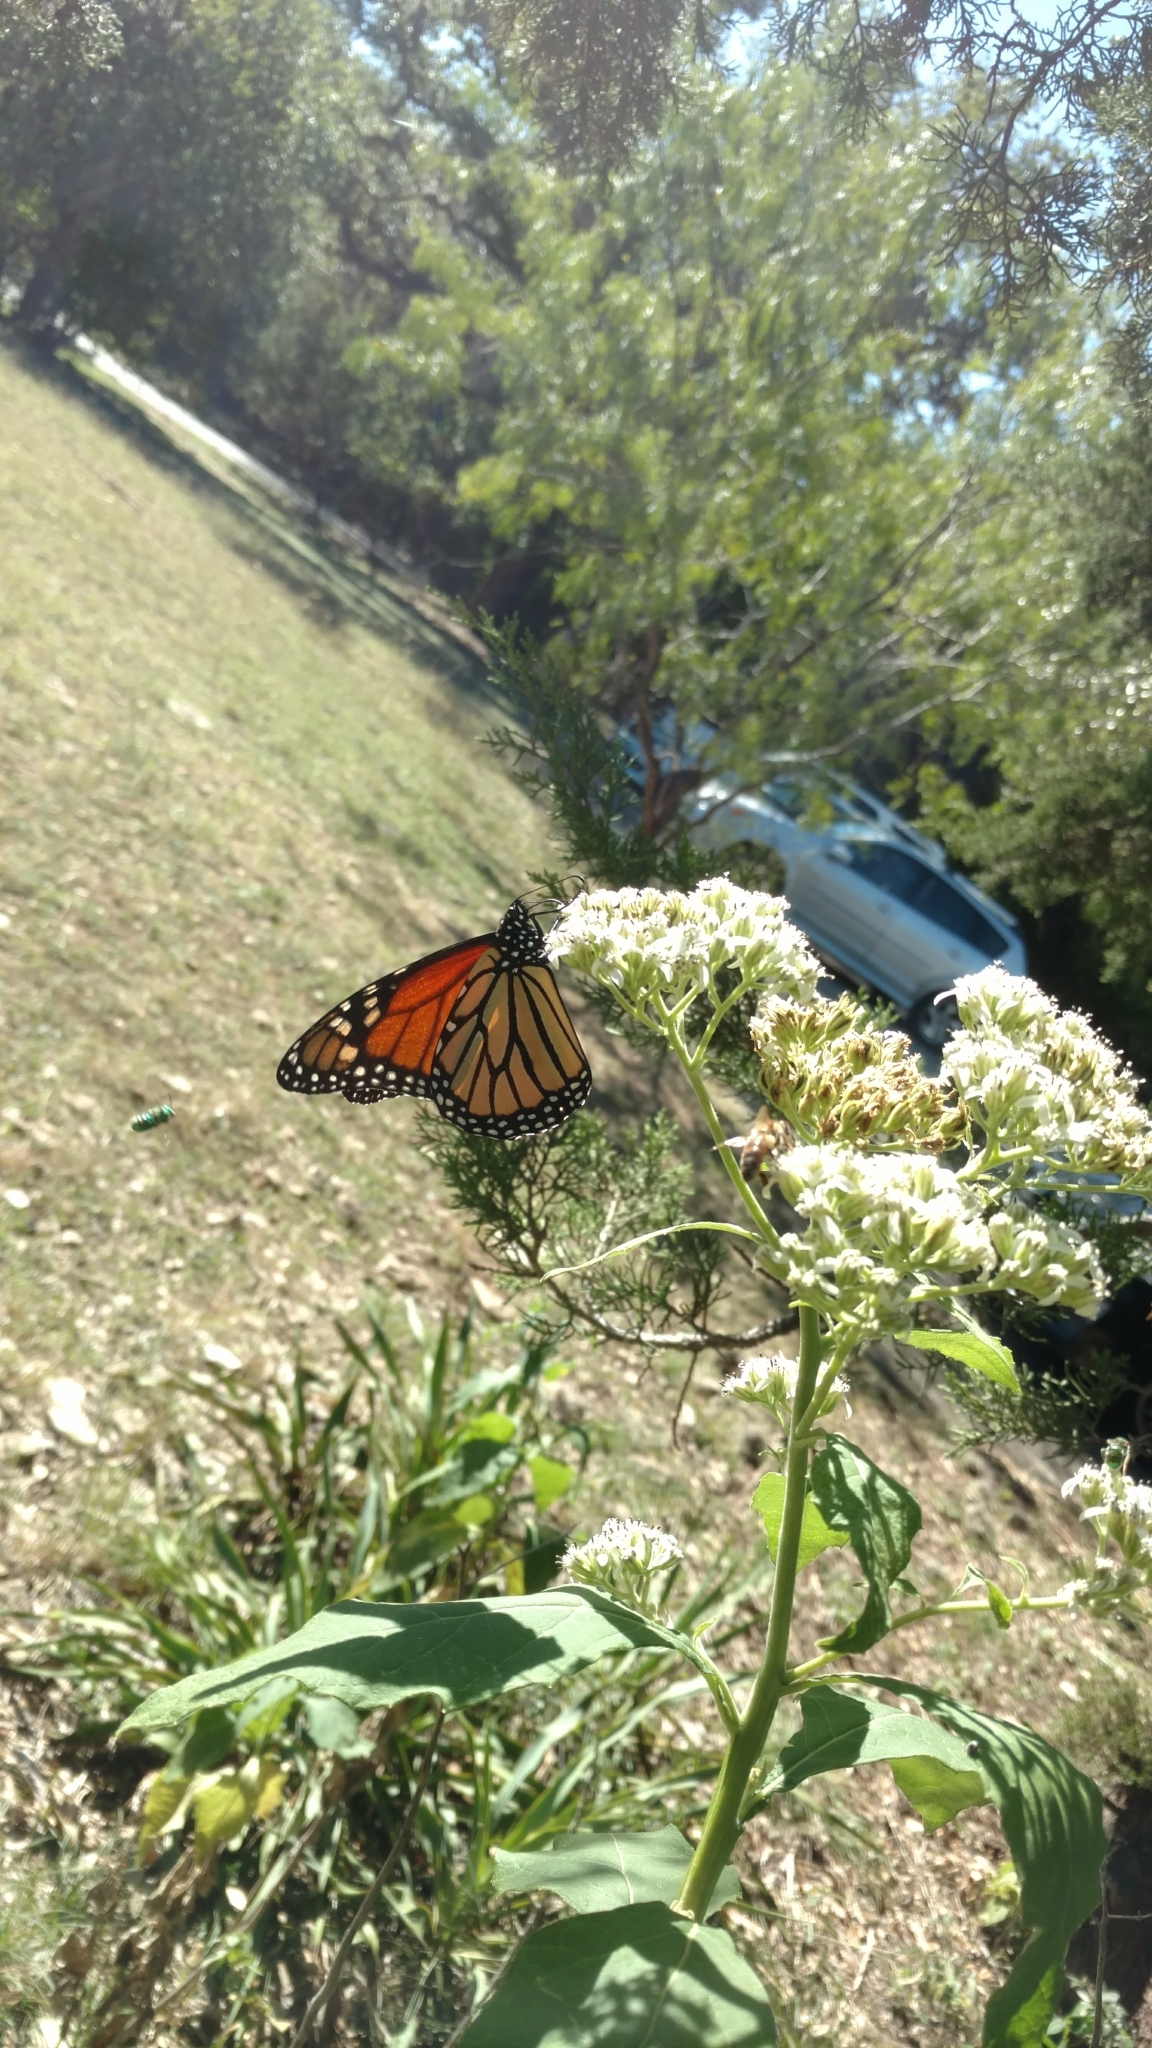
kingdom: Animalia
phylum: Arthropoda
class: Insecta
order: Lepidoptera
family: Nymphalidae
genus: Danaus
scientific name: Danaus plexippus
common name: Monarch
